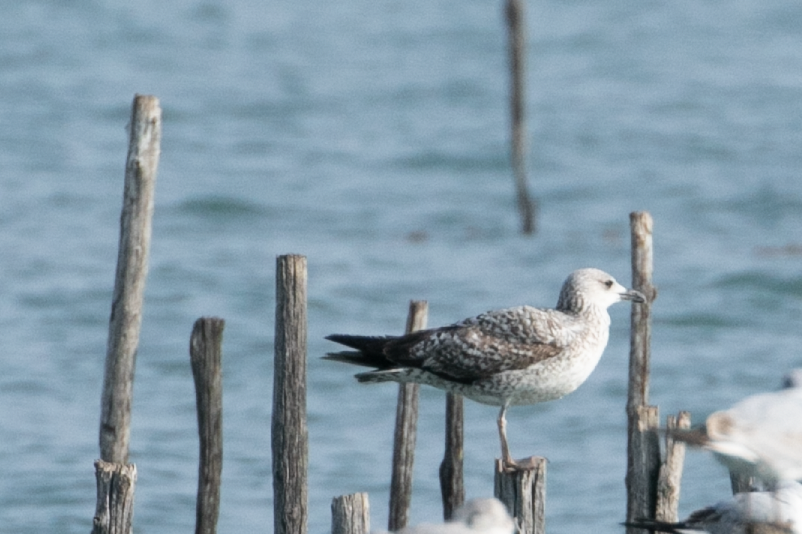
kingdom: Animalia
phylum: Chordata
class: Aves
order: Charadriiformes
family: Laridae
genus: Larus
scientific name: Larus michahellis
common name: Yellow-legged gull
